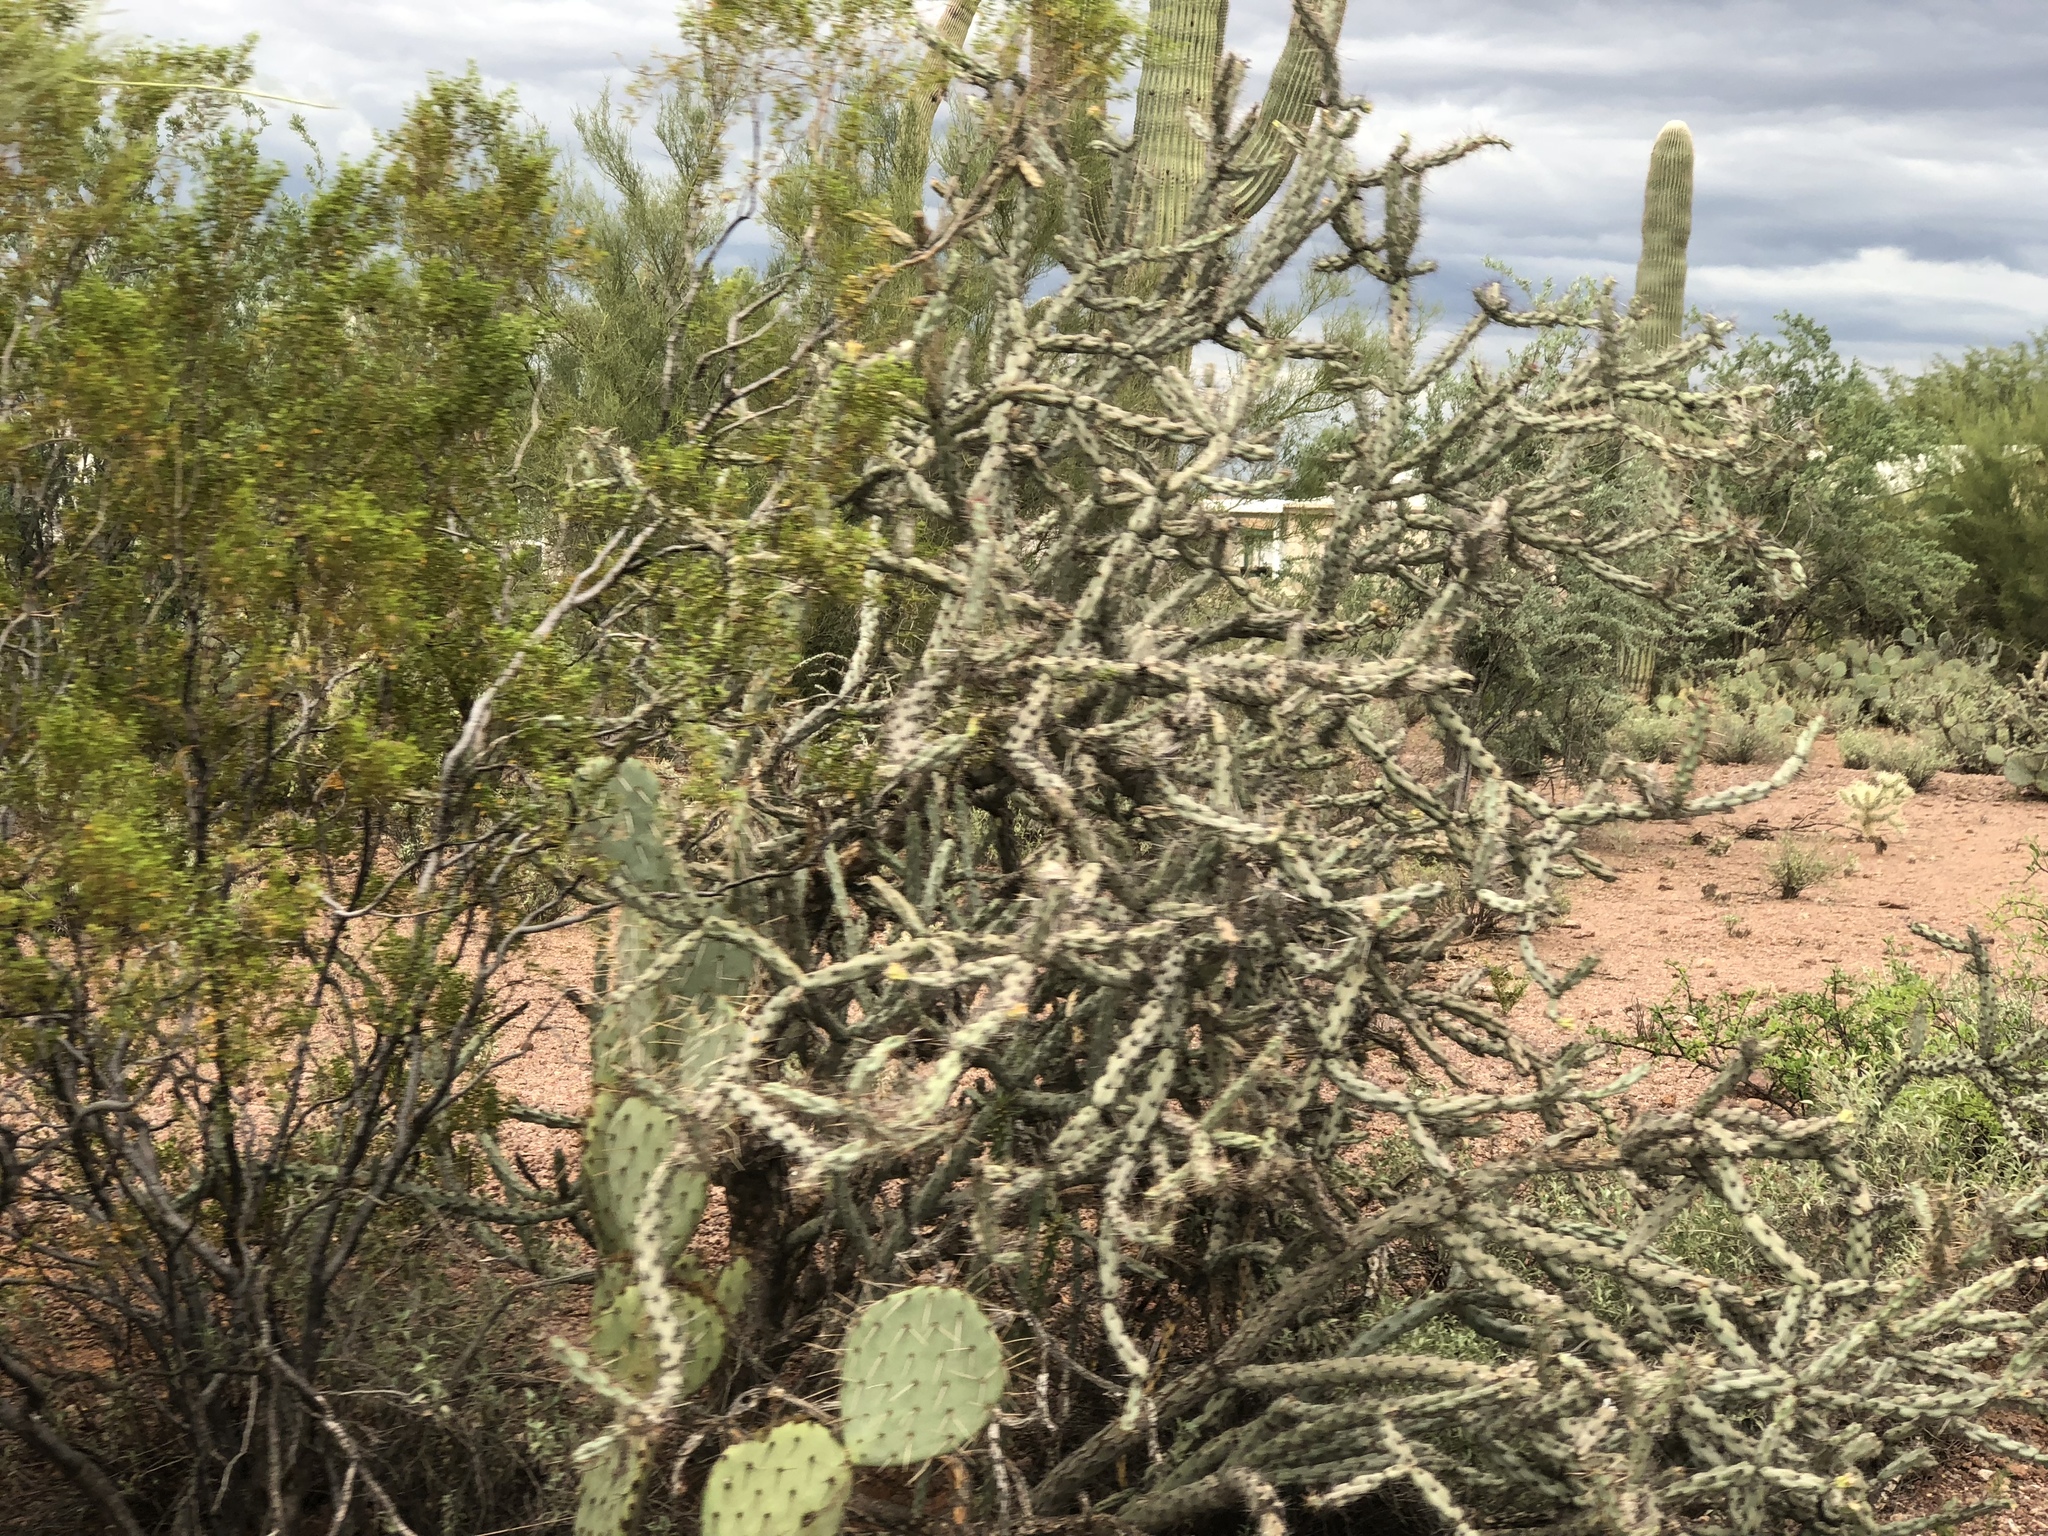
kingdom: Plantae
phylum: Tracheophyta
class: Magnoliopsida
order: Caryophyllales
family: Cactaceae
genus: Cylindropuntia
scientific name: Cylindropuntia thurberi
